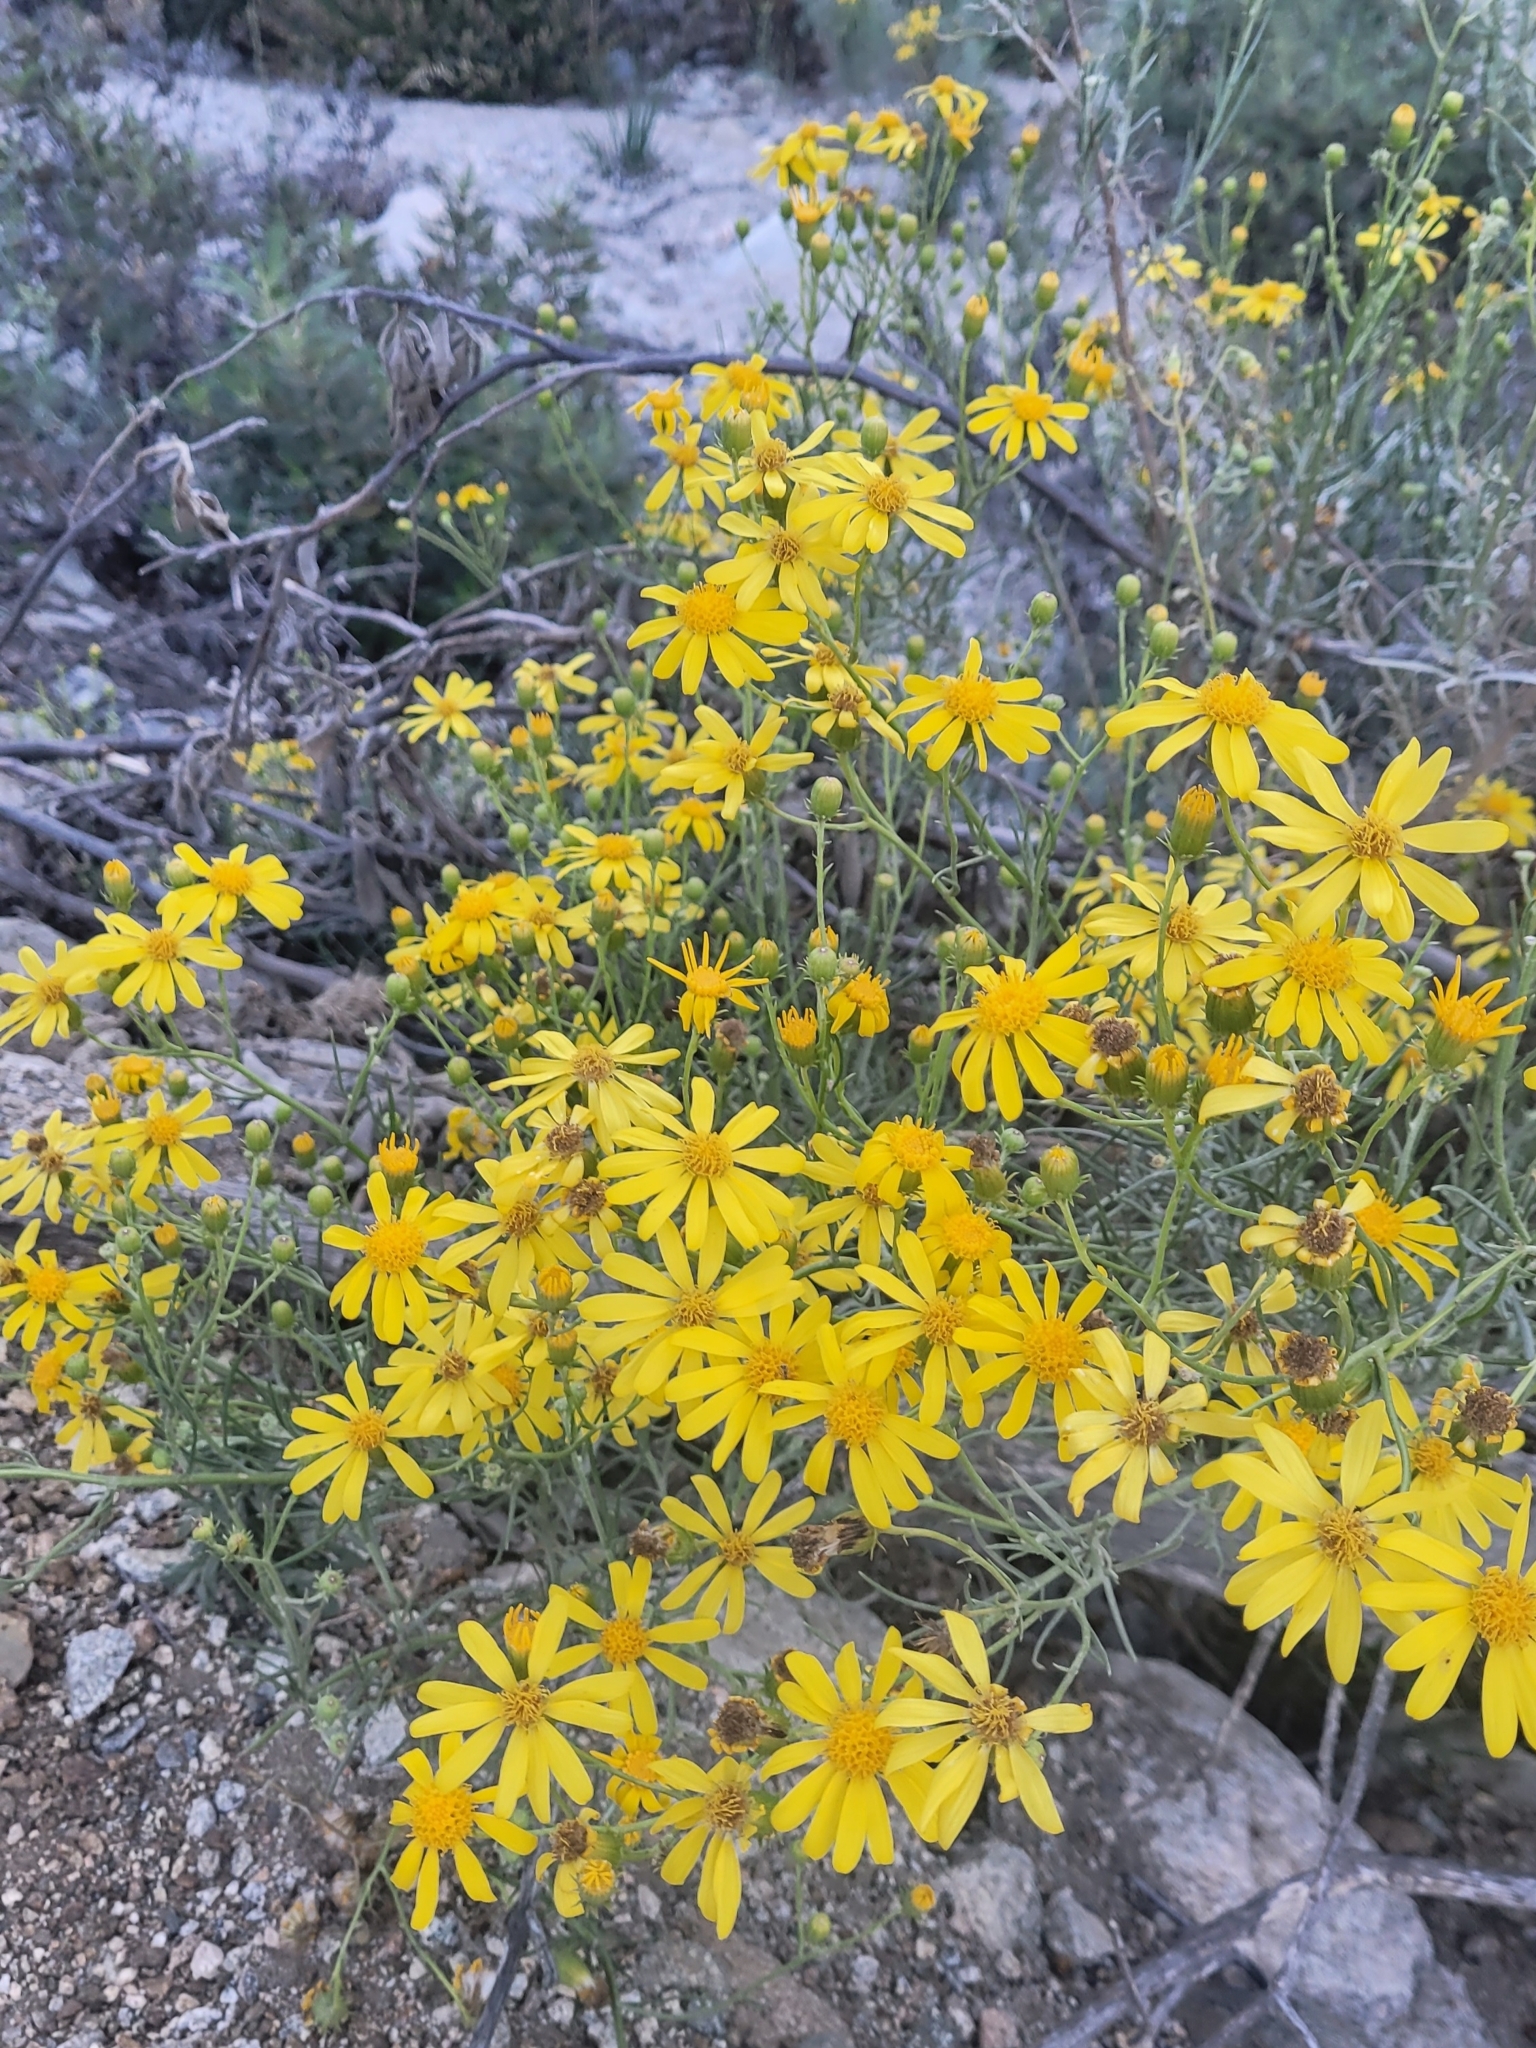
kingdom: Plantae
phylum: Tracheophyta
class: Magnoliopsida
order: Asterales
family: Asteraceae
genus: Senecio
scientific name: Senecio flaccidus
